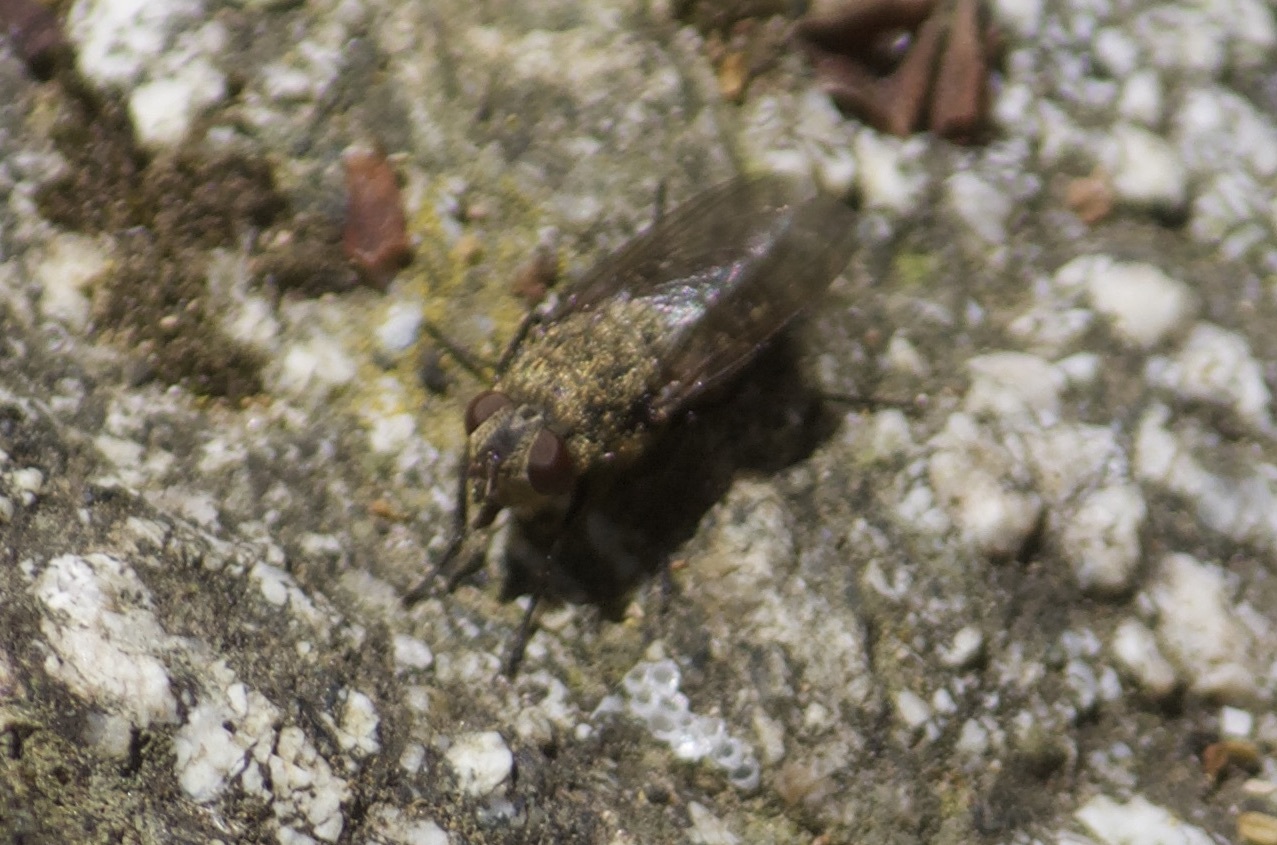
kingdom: Animalia
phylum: Arthropoda
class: Insecta
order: Diptera
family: Polleniidae
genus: Pollenia
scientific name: Pollenia
